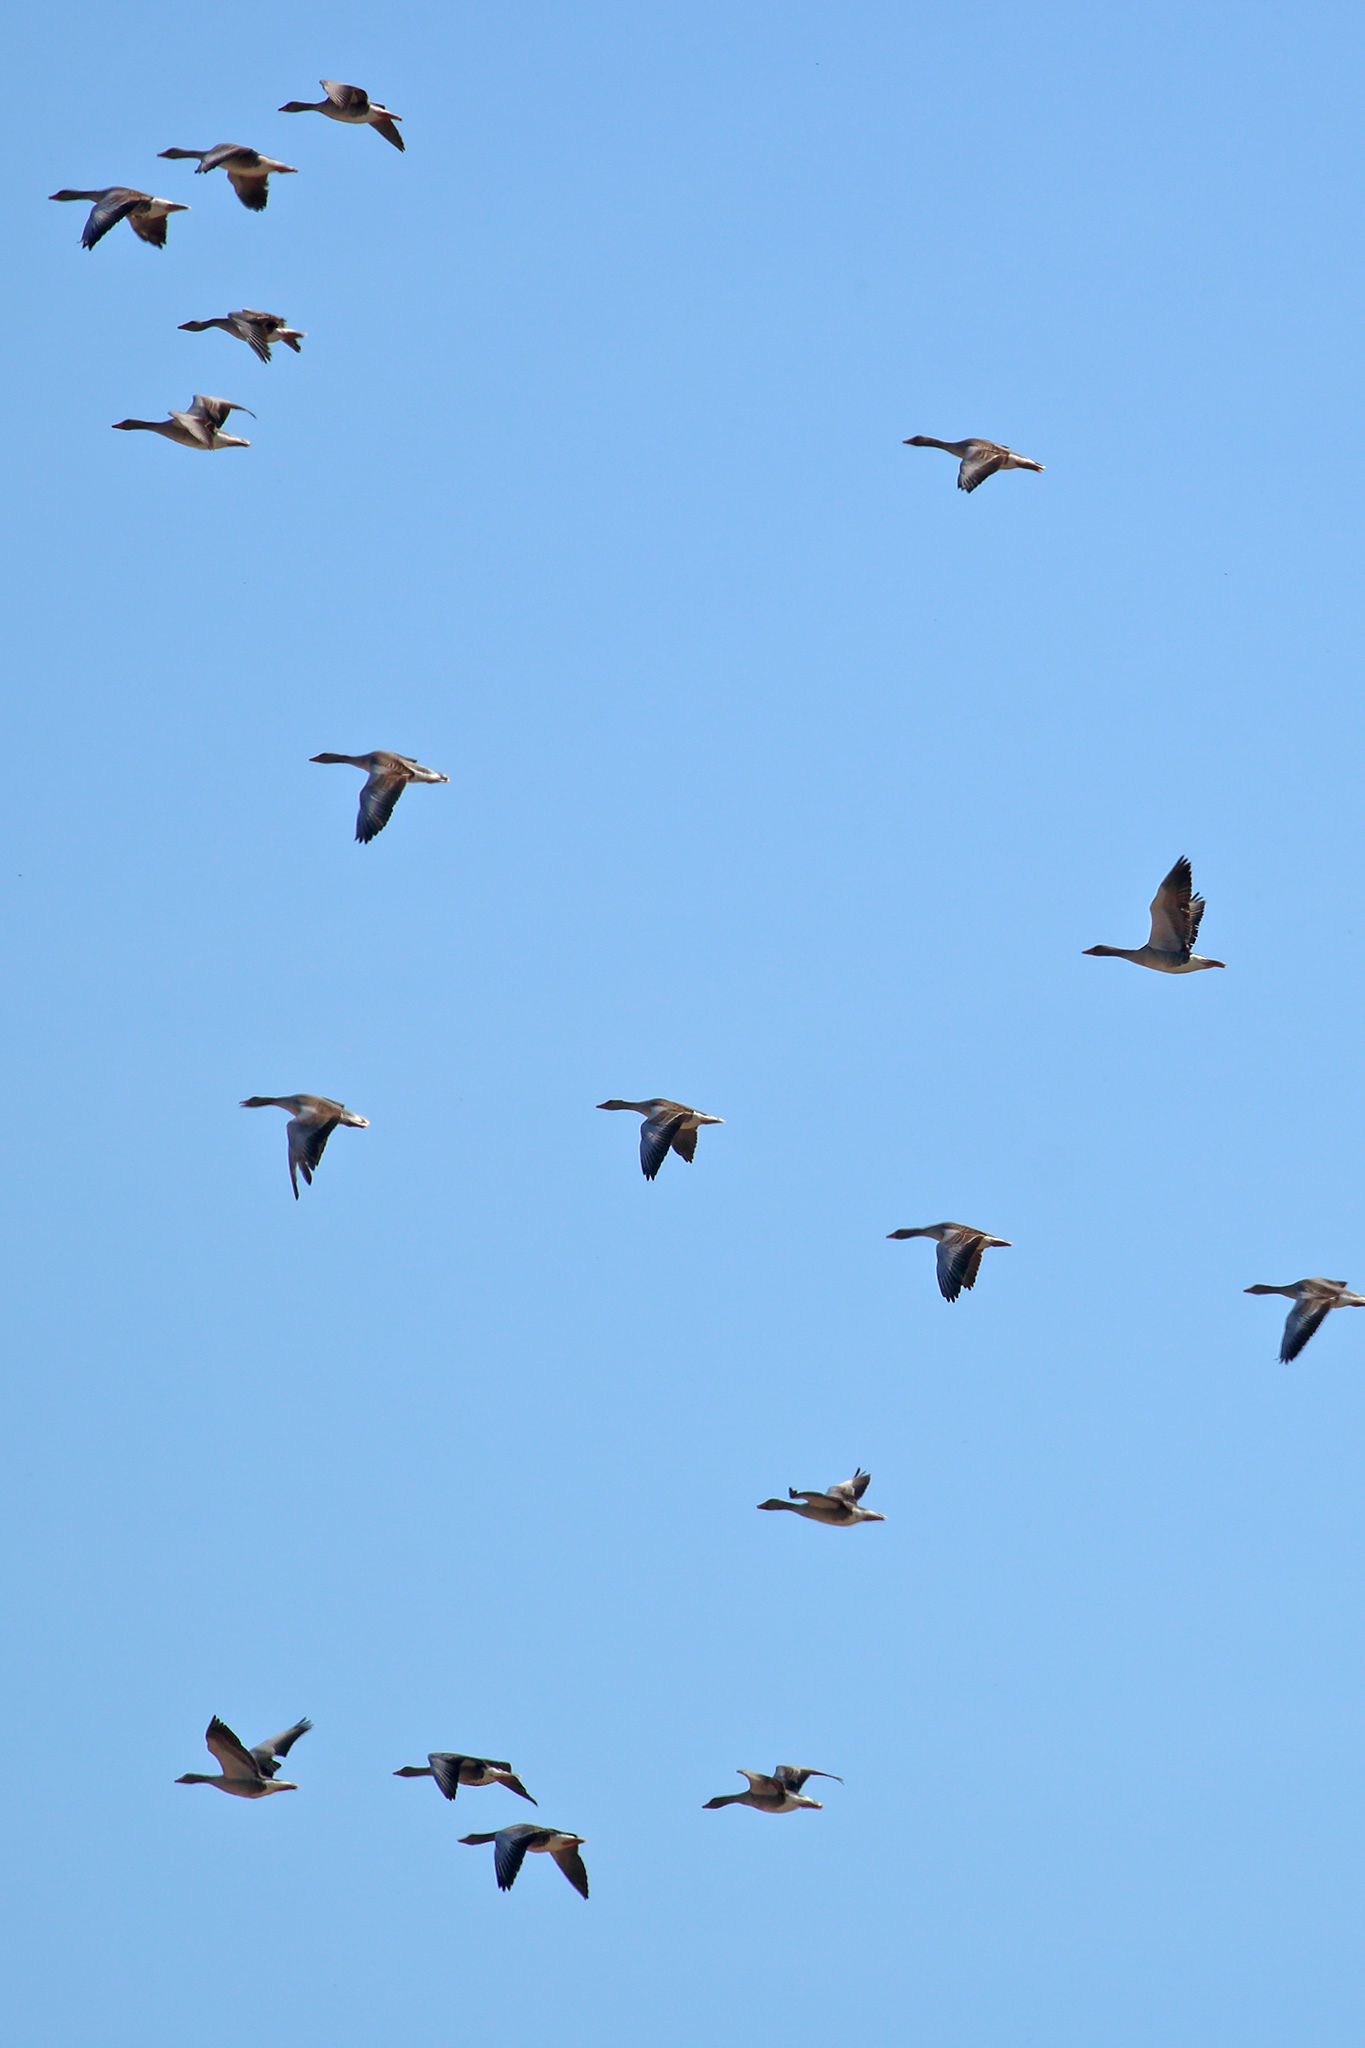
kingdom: Animalia
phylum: Chordata
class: Aves
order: Anseriformes
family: Anatidae
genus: Anser
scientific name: Anser anser
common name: Greylag goose
